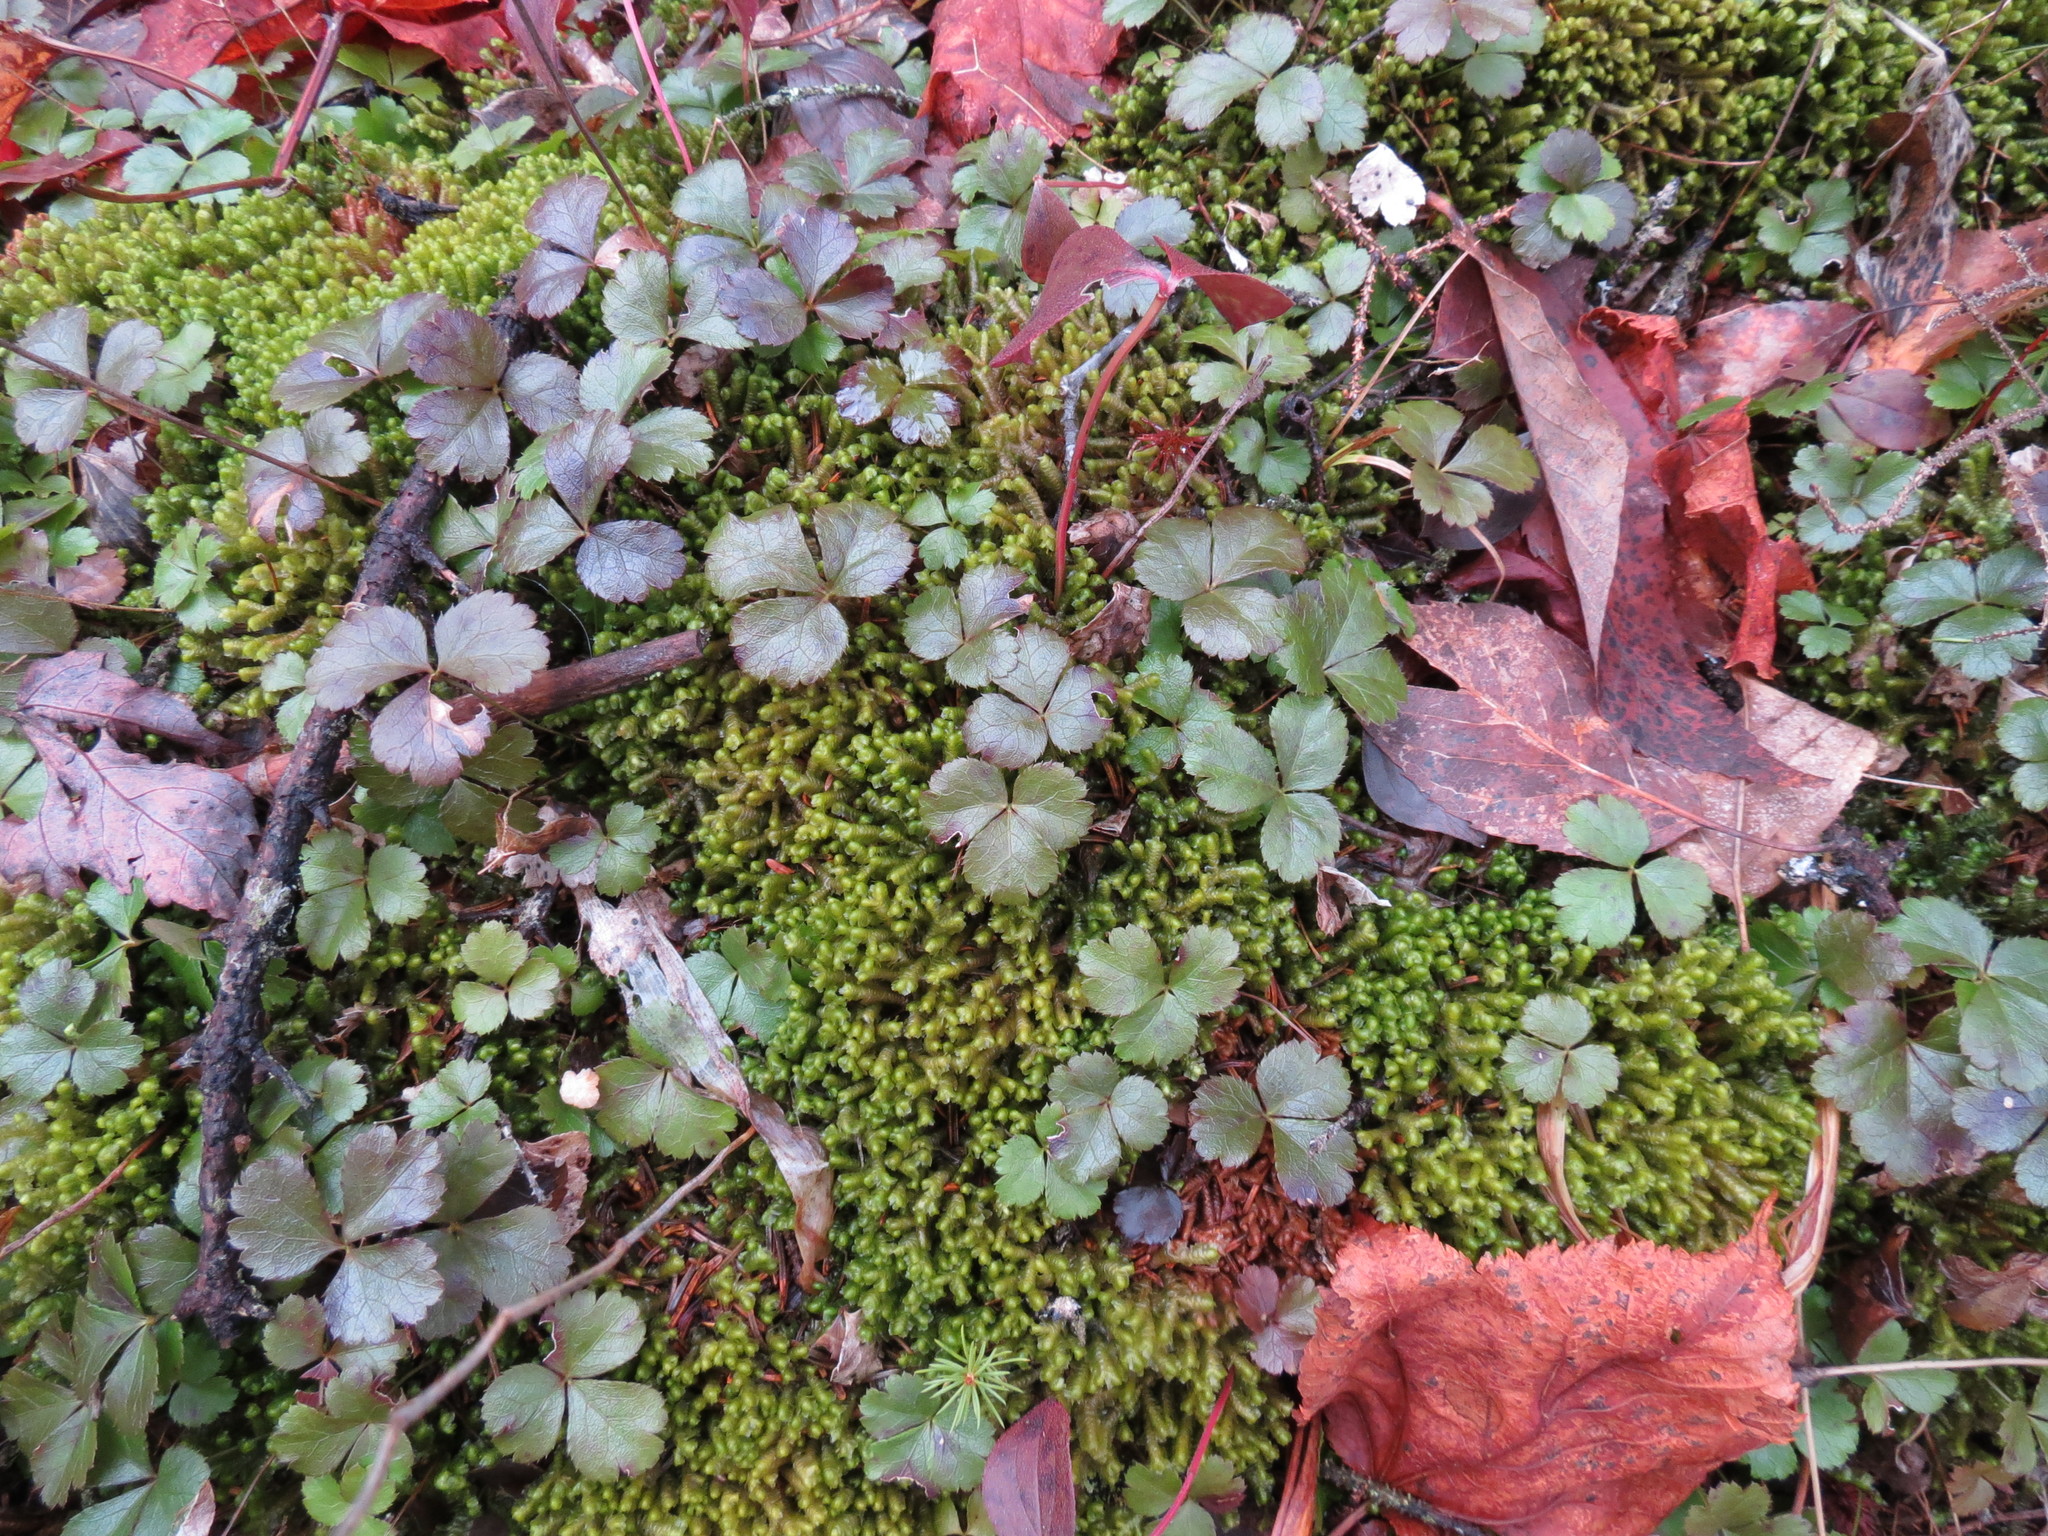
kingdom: Plantae
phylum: Tracheophyta
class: Magnoliopsida
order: Ranunculales
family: Ranunculaceae
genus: Coptis
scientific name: Coptis trifolia
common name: Canker-root
